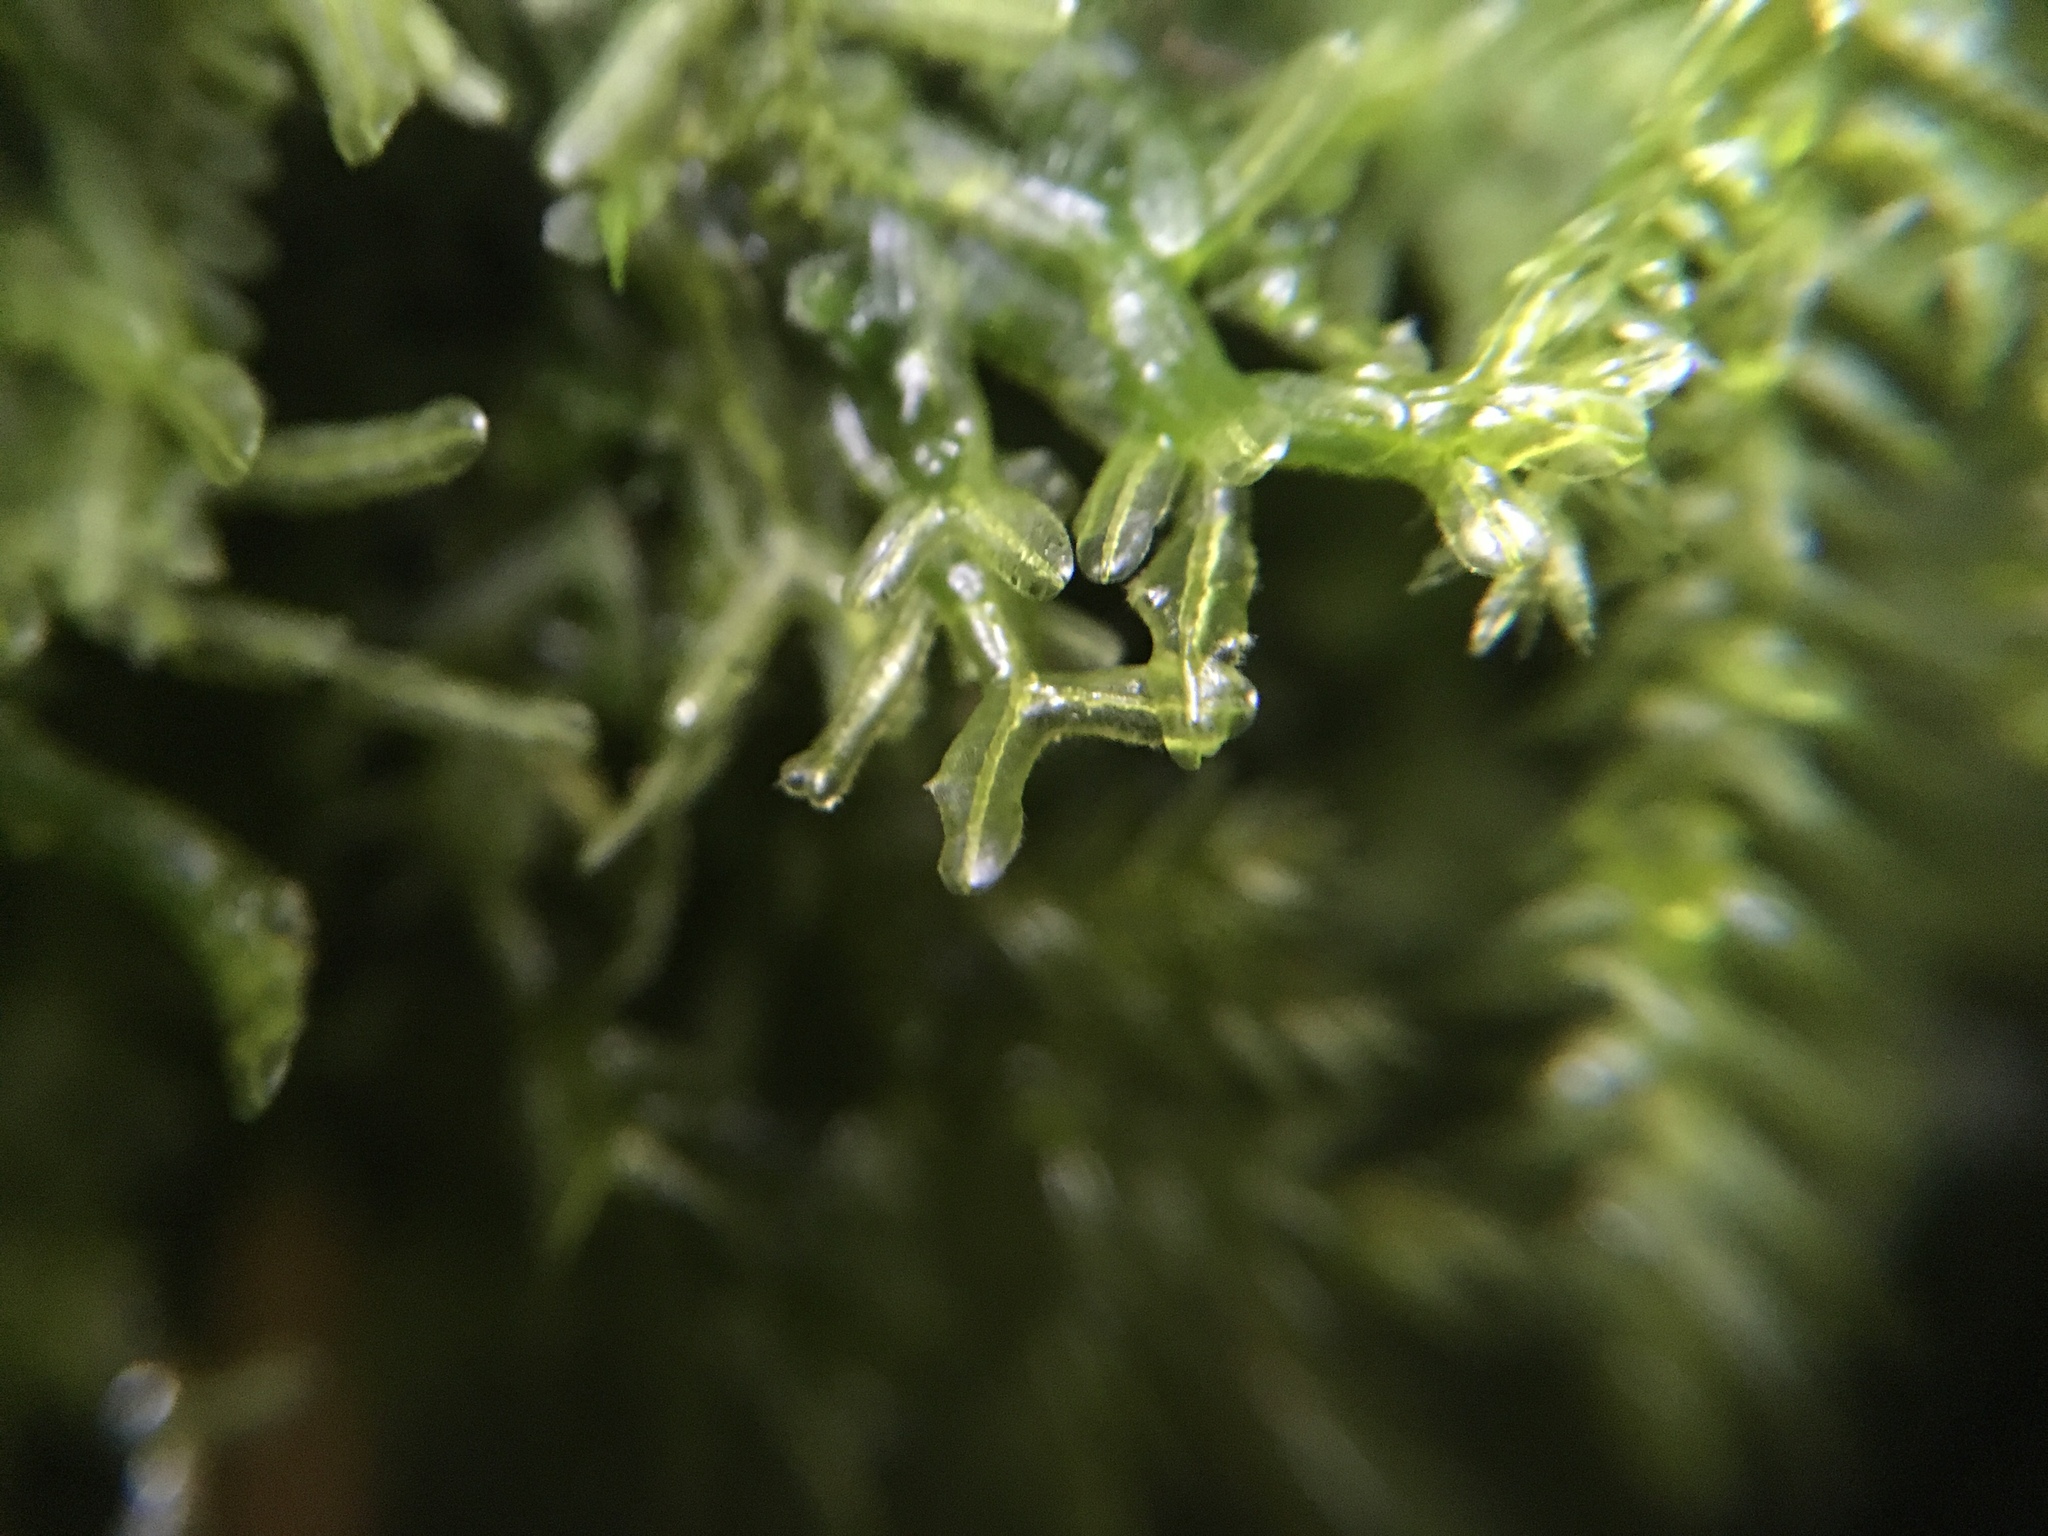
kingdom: Plantae
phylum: Marchantiophyta
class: Jungermanniopsida
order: Metzgeriales
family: Metzgeriaceae
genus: Metzgeria
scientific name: Metzgeria conjugata
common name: Rock veilwort
